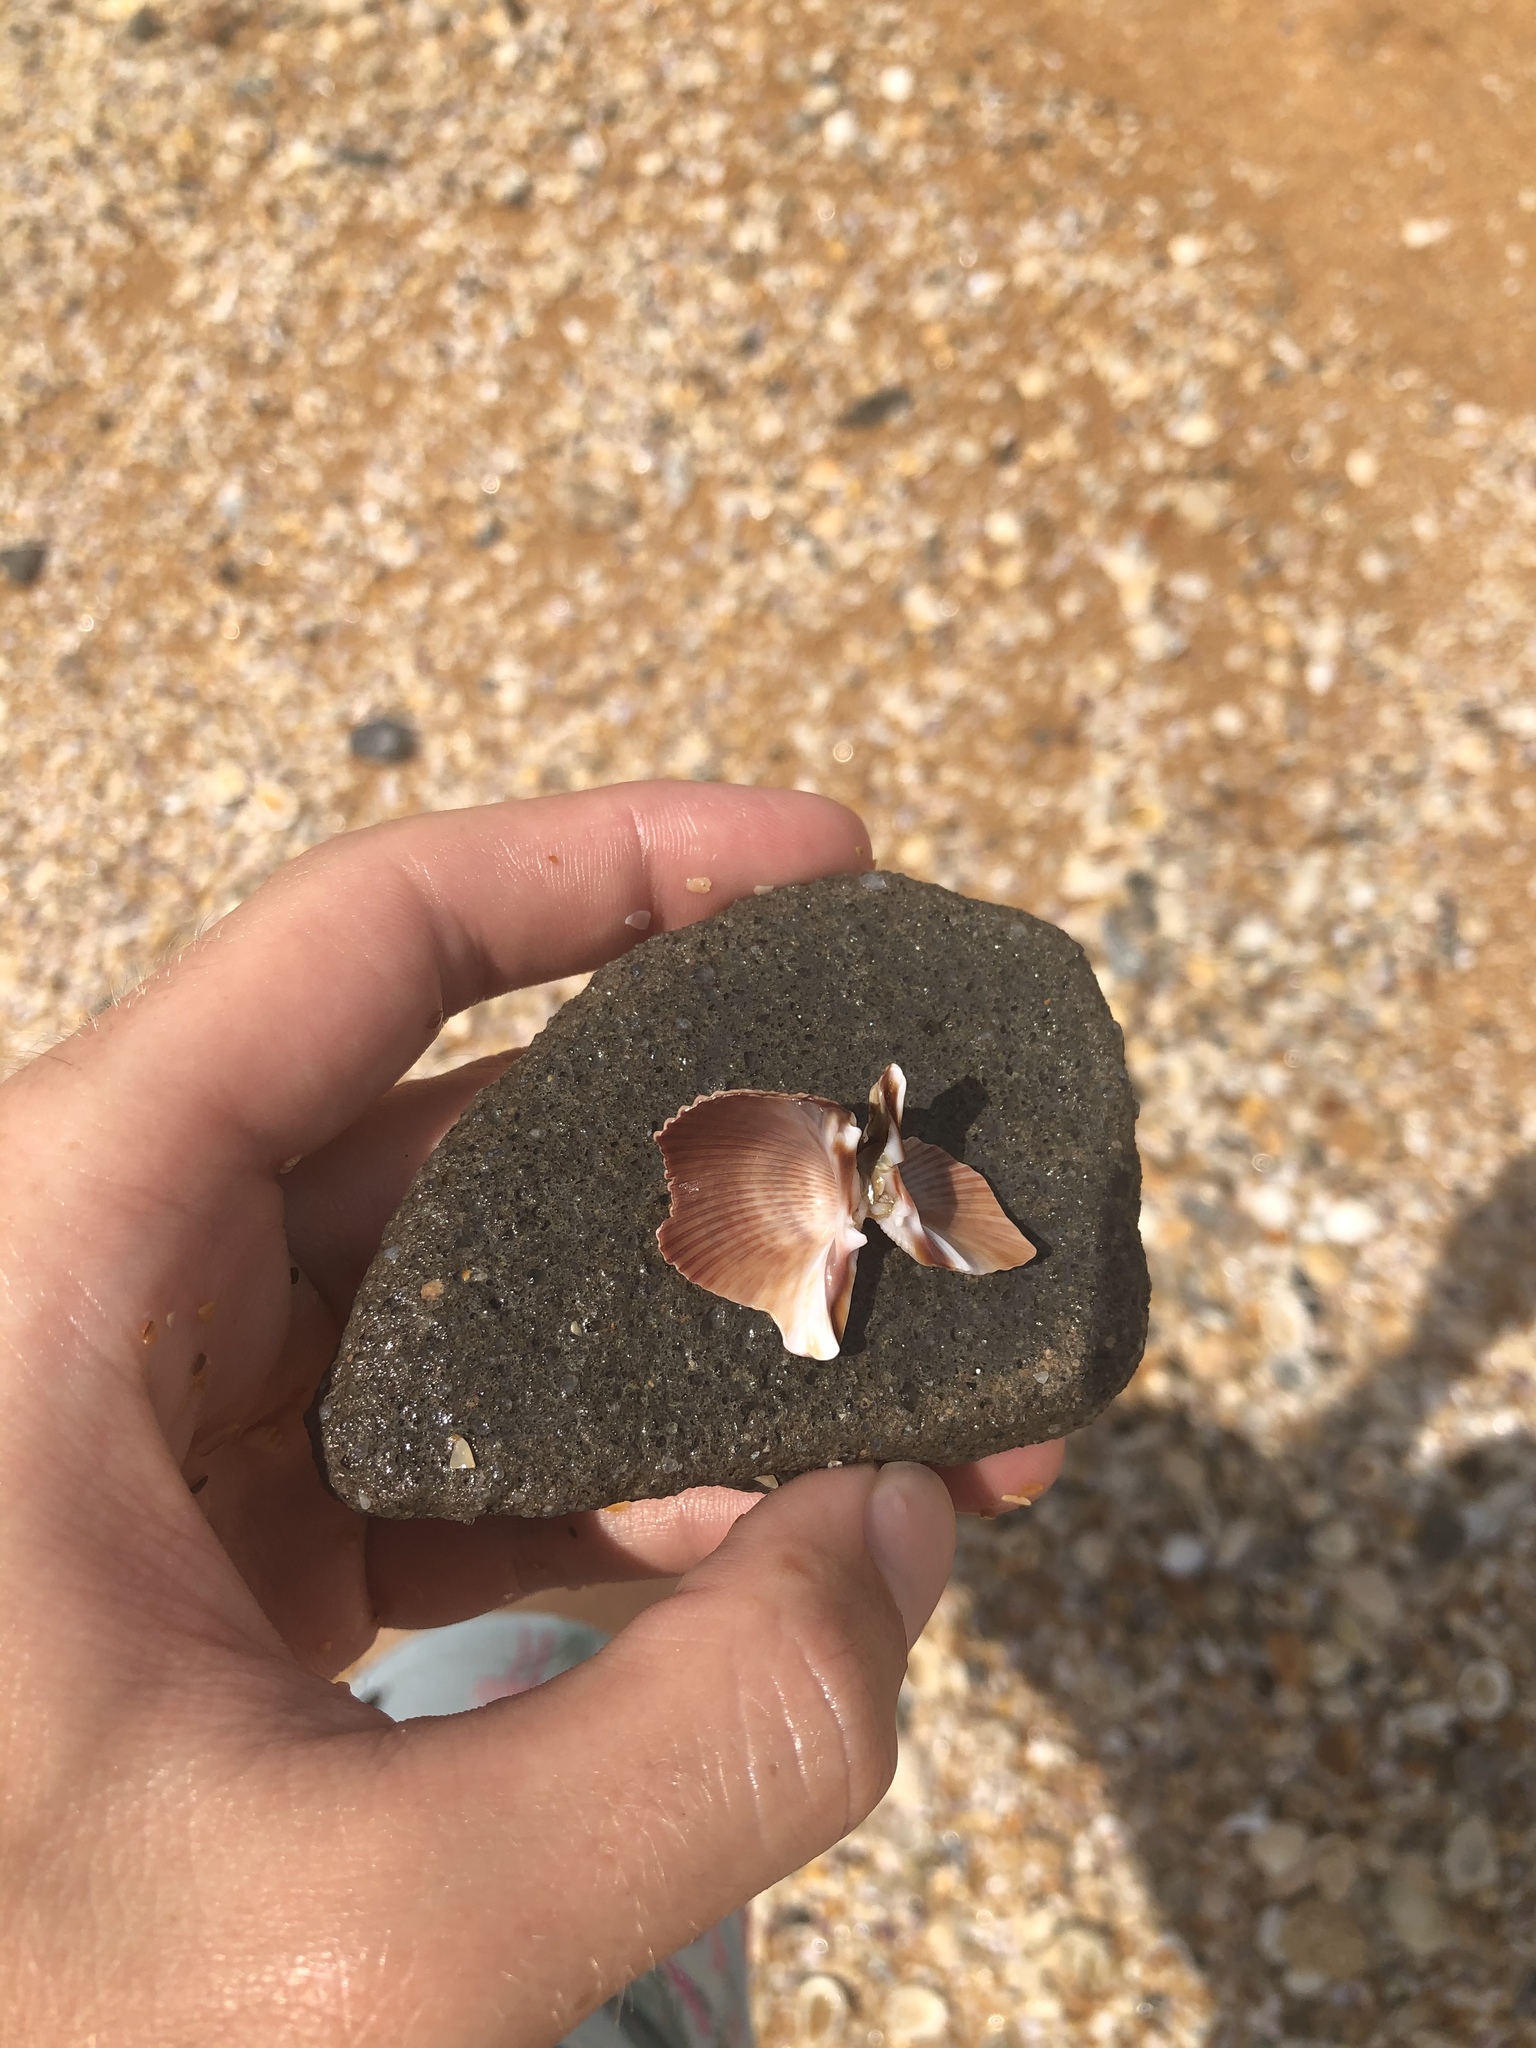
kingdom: Animalia
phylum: Mollusca
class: Bivalvia
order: Cardiida
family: Cardiidae
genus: Dinocardium
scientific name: Dinocardium robustum
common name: Atlantic giant cockle
